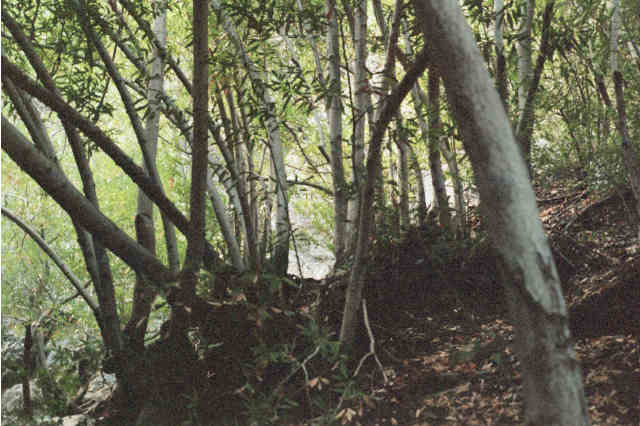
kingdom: Plantae
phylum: Tracheophyta
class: Magnoliopsida
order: Laurales
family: Lauraceae
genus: Umbellularia
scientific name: Umbellularia californica
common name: California bay
